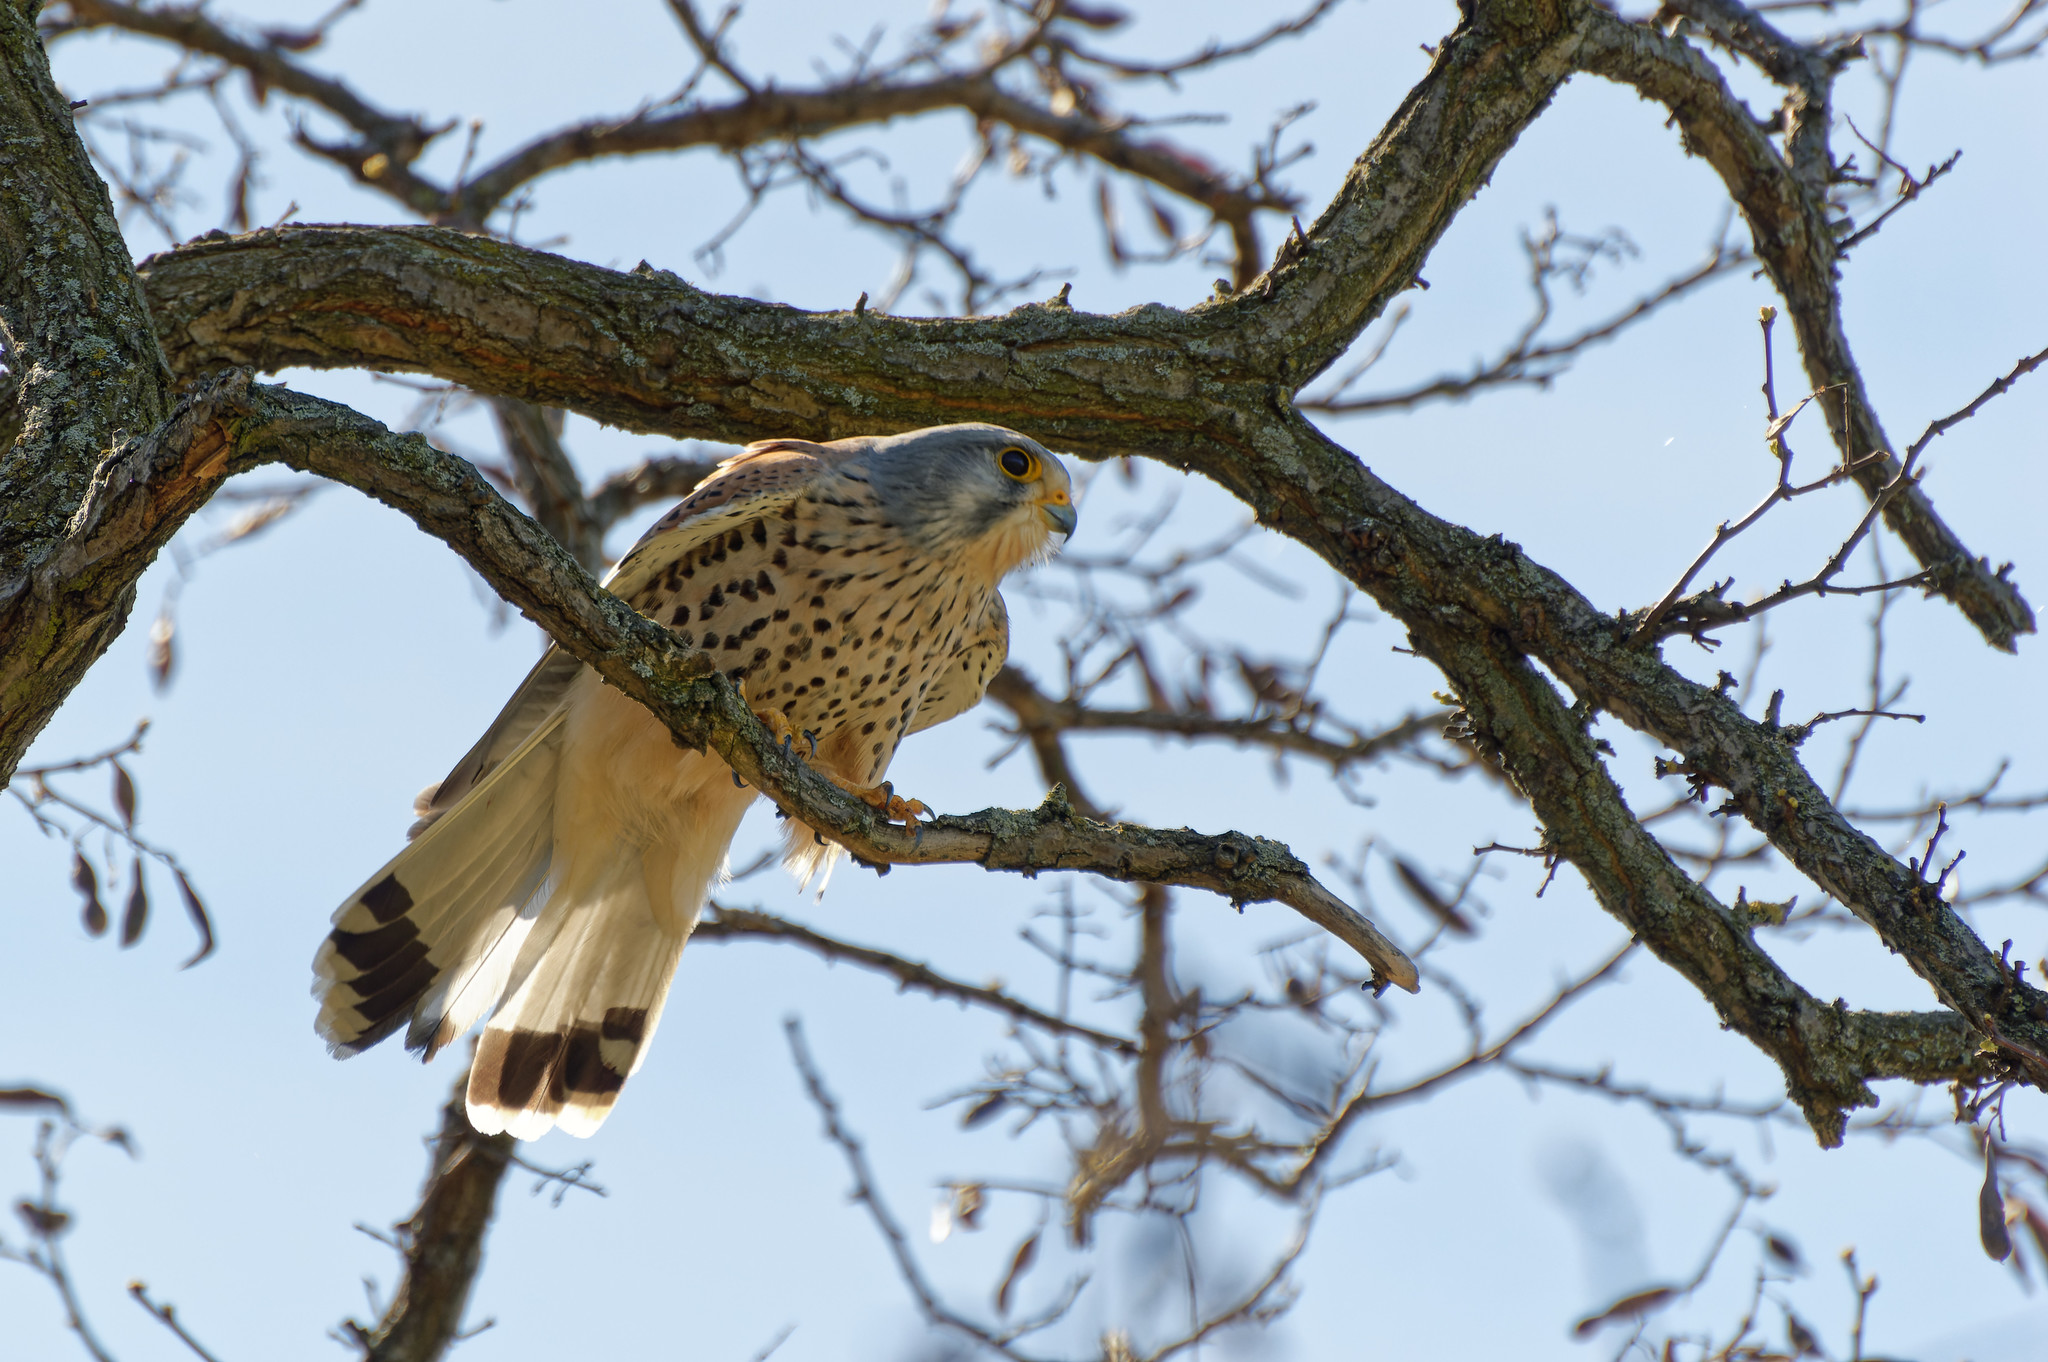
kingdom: Animalia
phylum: Chordata
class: Aves
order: Falconiformes
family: Falconidae
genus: Falco
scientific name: Falco tinnunculus
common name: Common kestrel
